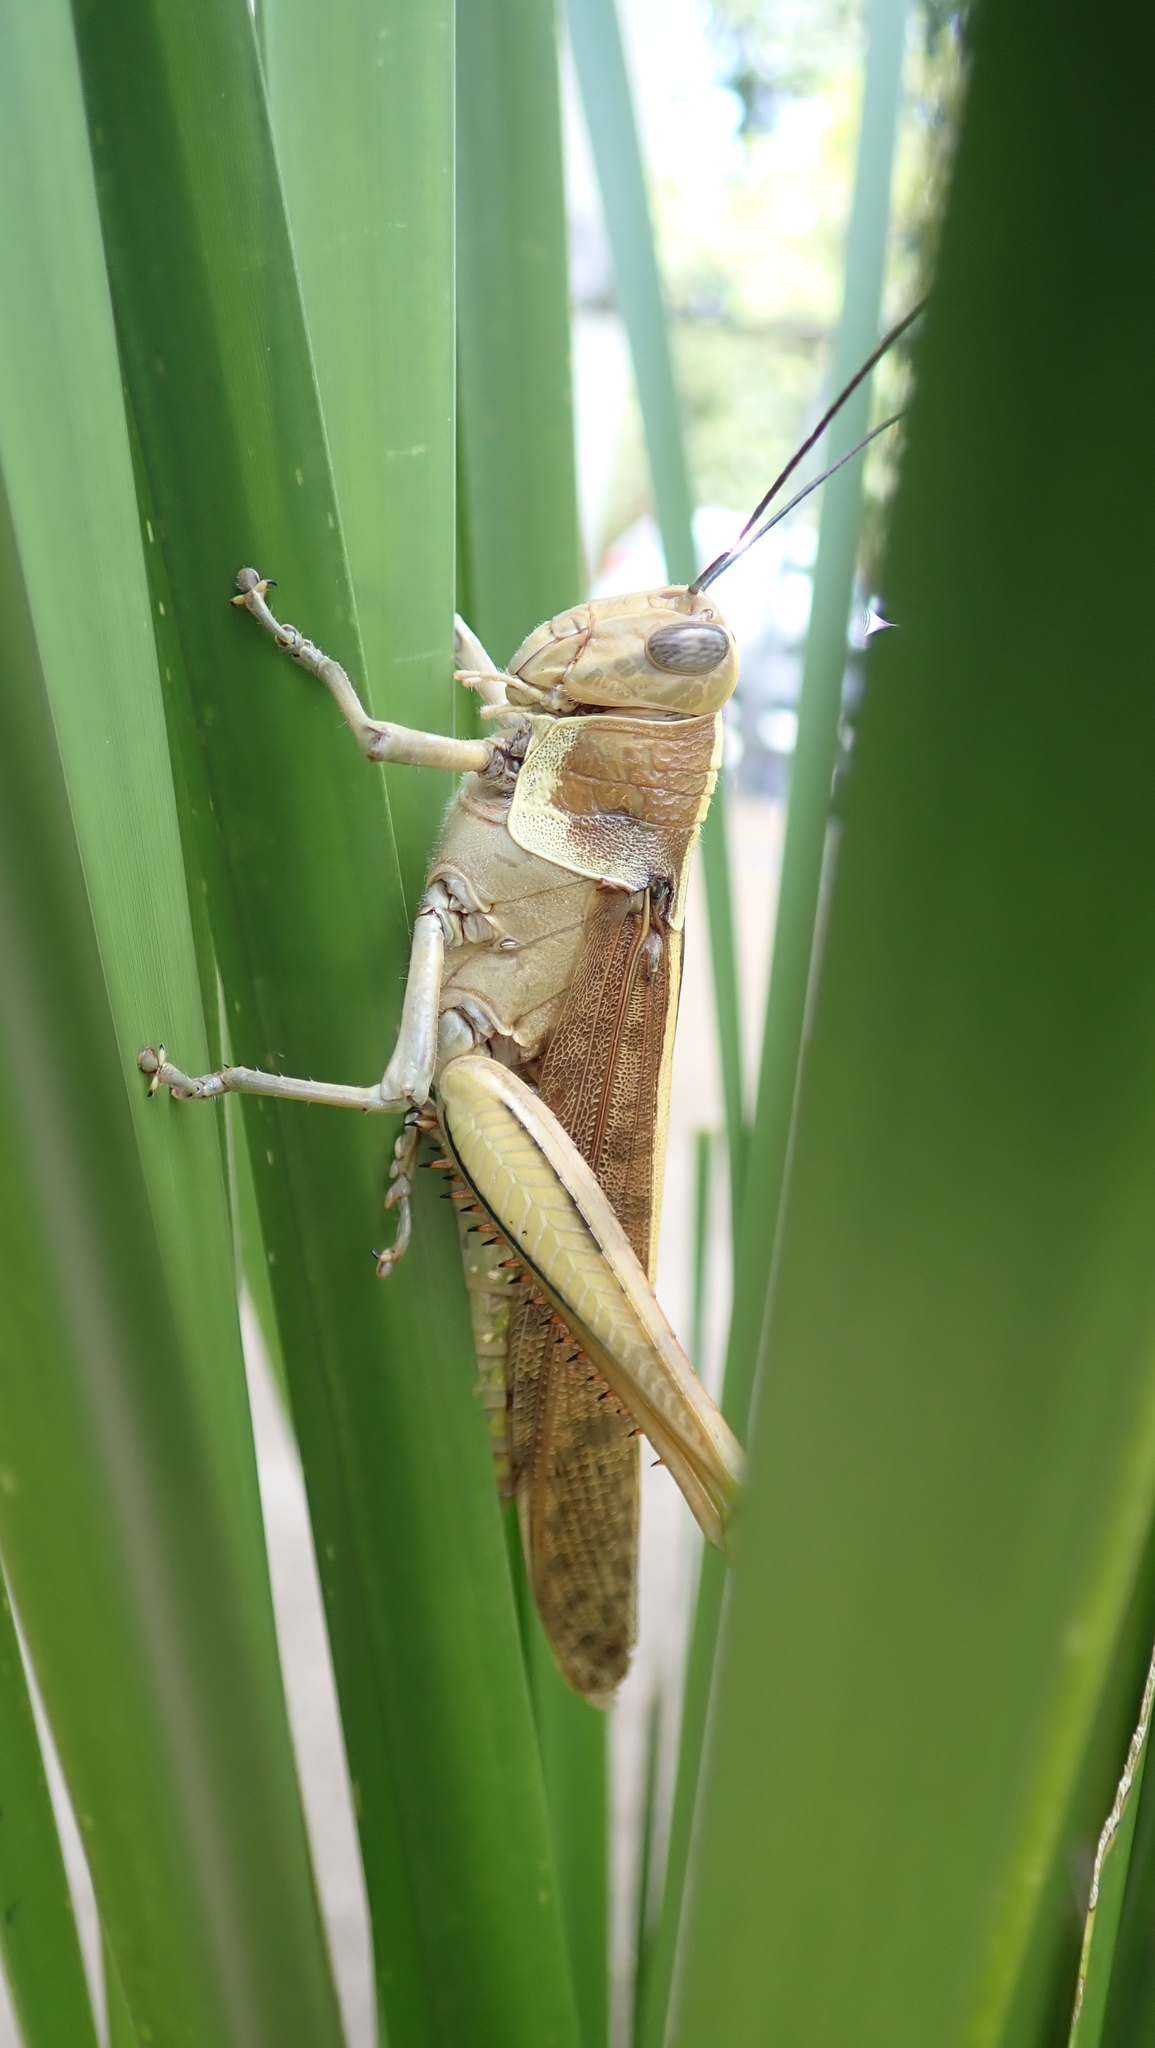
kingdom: Animalia
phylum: Arthropoda
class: Insecta
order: Orthoptera
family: Acrididae
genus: Valanga
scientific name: Valanga irregularis
